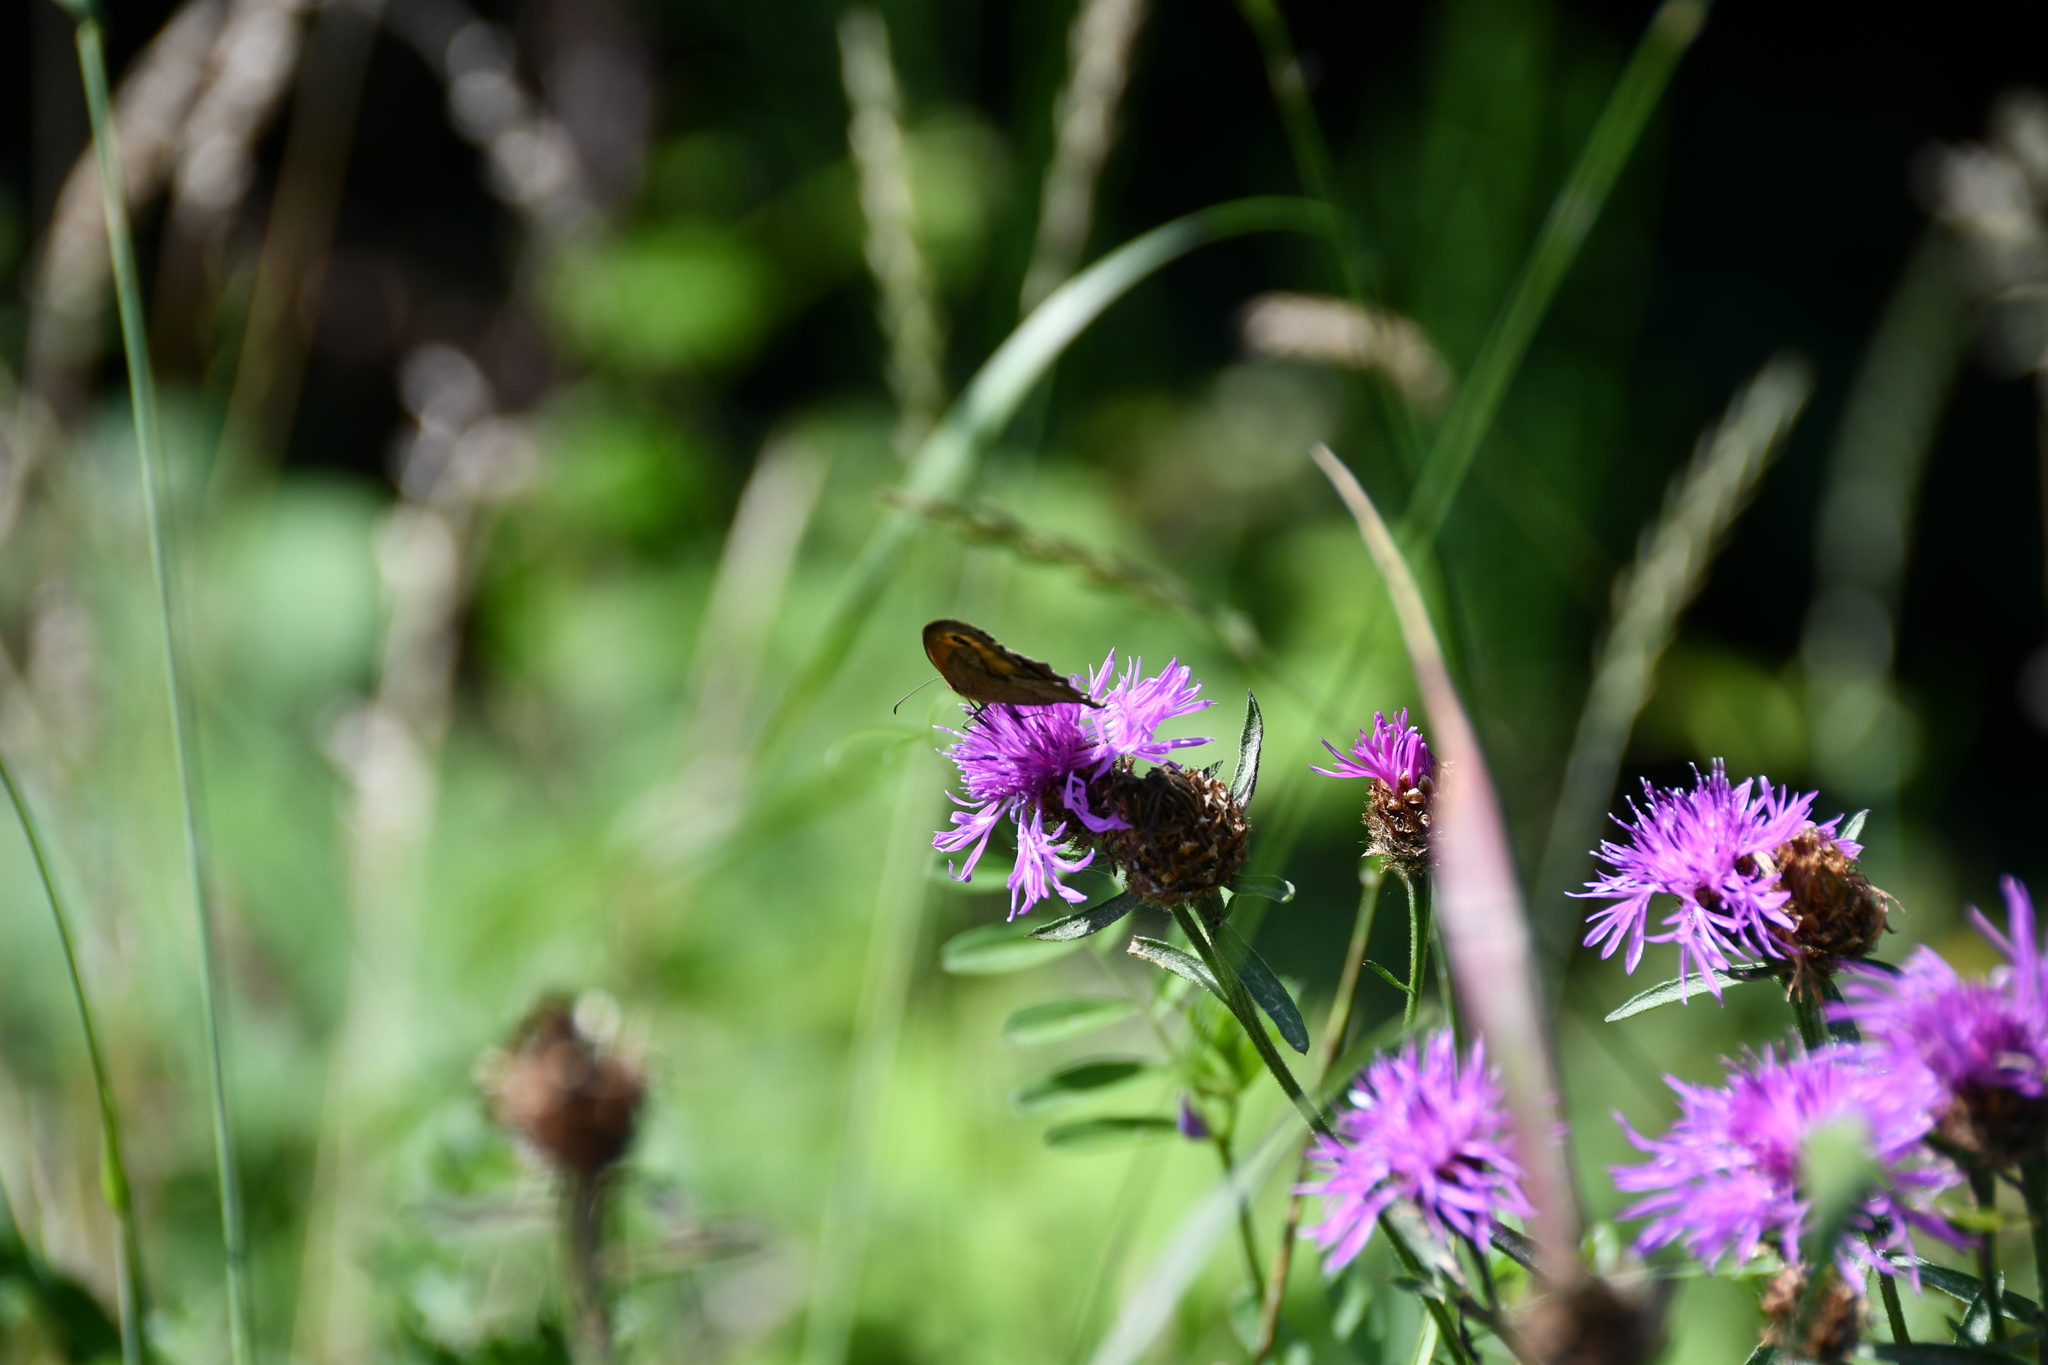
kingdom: Animalia
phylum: Arthropoda
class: Insecta
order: Lepidoptera
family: Nymphalidae
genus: Maniola
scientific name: Maniola jurtina
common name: Meadow brown
